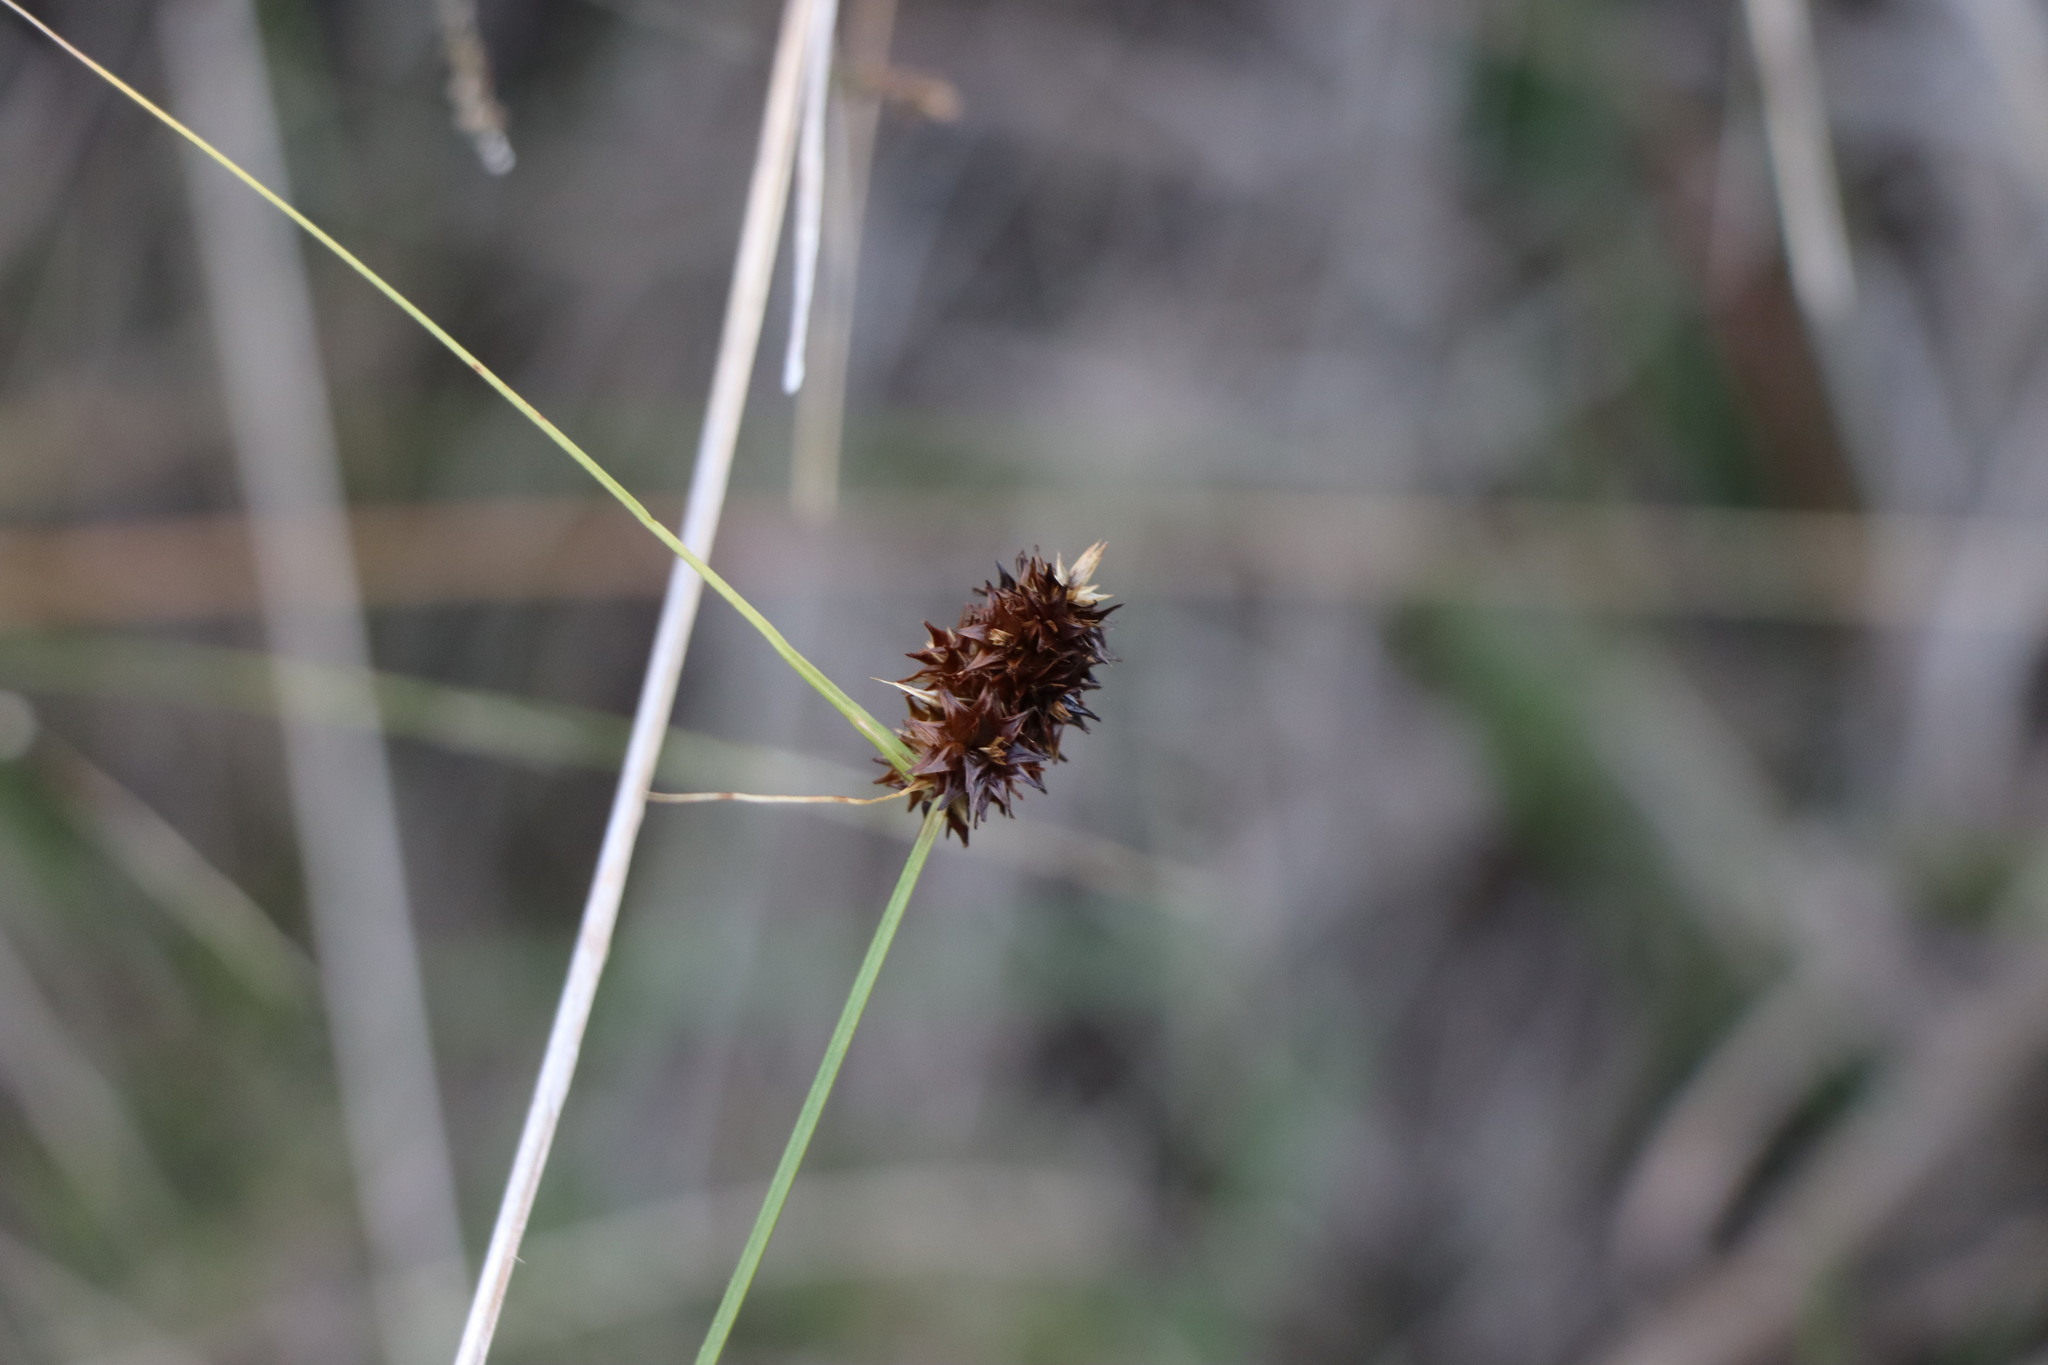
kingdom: Plantae
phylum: Tracheophyta
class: Liliopsida
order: Poales
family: Cyperaceae
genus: Carex
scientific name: Carex uruguensis
